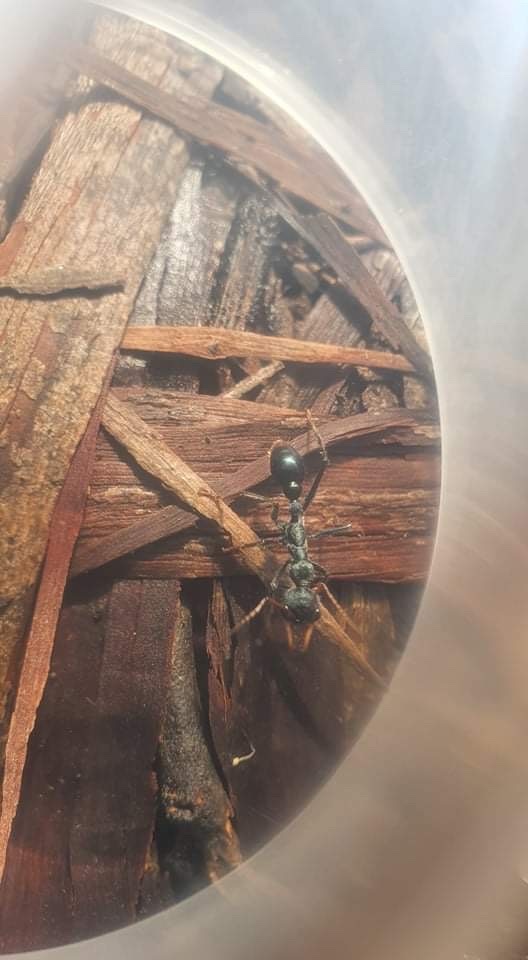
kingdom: Animalia
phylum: Arthropoda
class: Insecta
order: Hymenoptera
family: Formicidae
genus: Myrmecia
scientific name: Myrmecia tarsata
